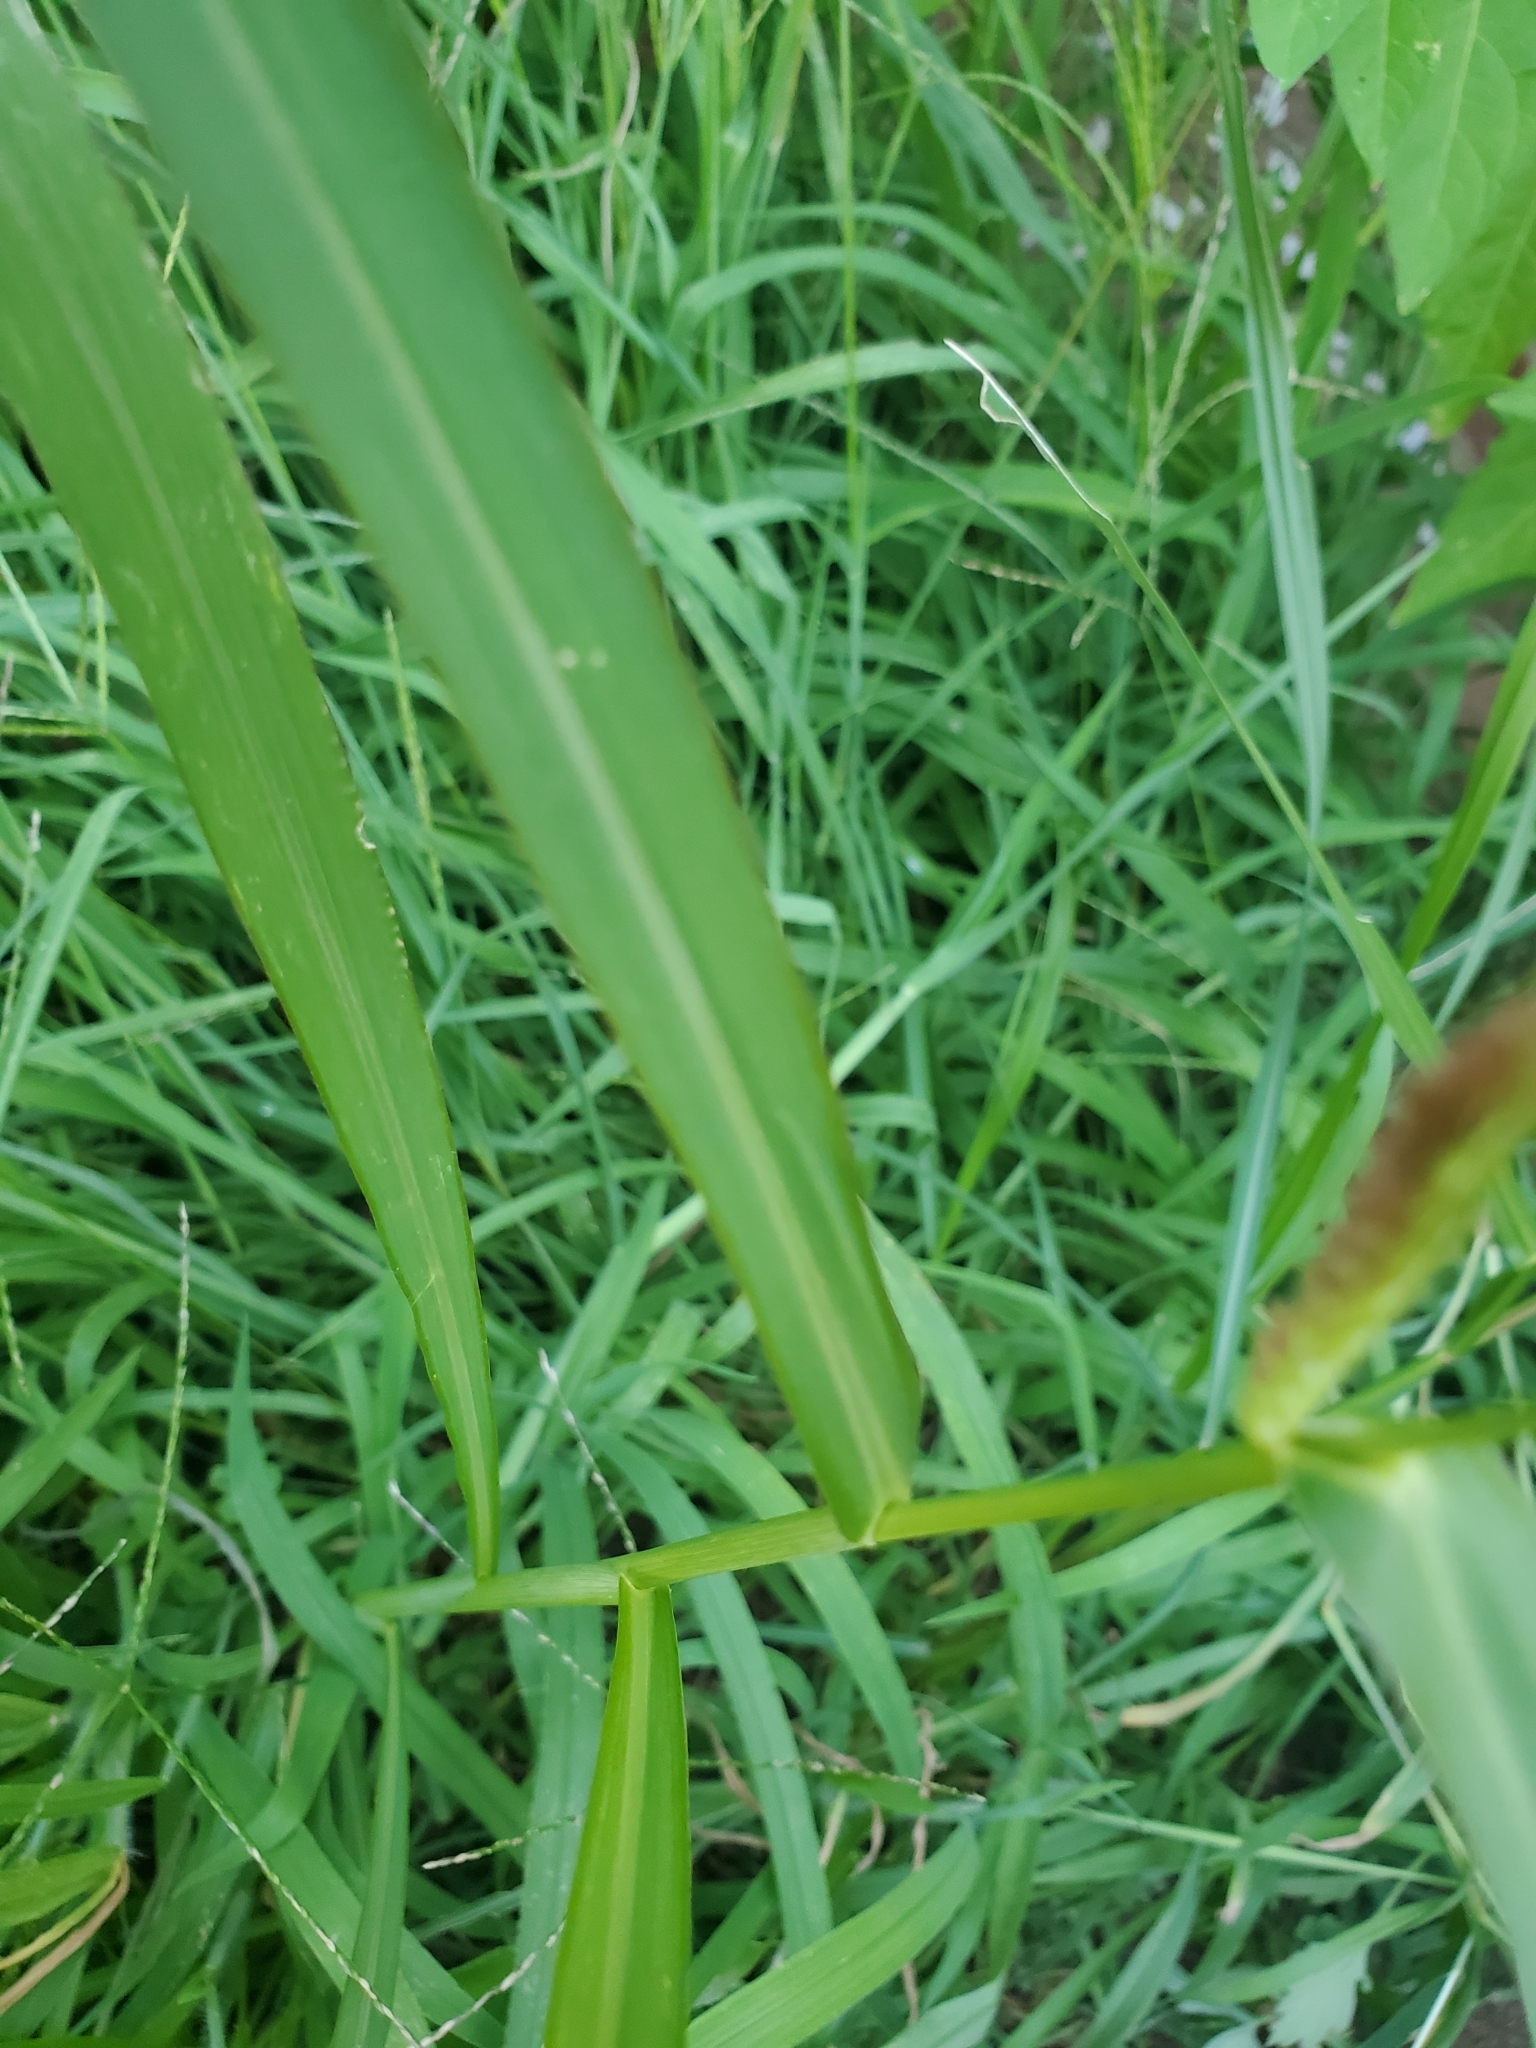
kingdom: Plantae
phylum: Tracheophyta
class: Liliopsida
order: Poales
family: Poaceae
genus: Echinochloa
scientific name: Echinochloa crus-galli
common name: Cockspur
